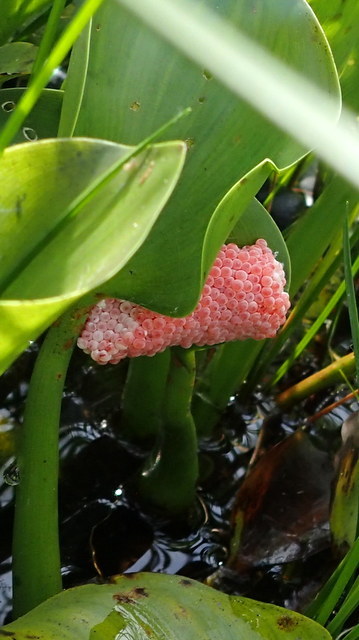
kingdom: Animalia
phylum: Mollusca
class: Gastropoda
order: Architaenioglossa
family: Ampullariidae
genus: Pomacea
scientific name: Pomacea maculata
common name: Giant applesnail
